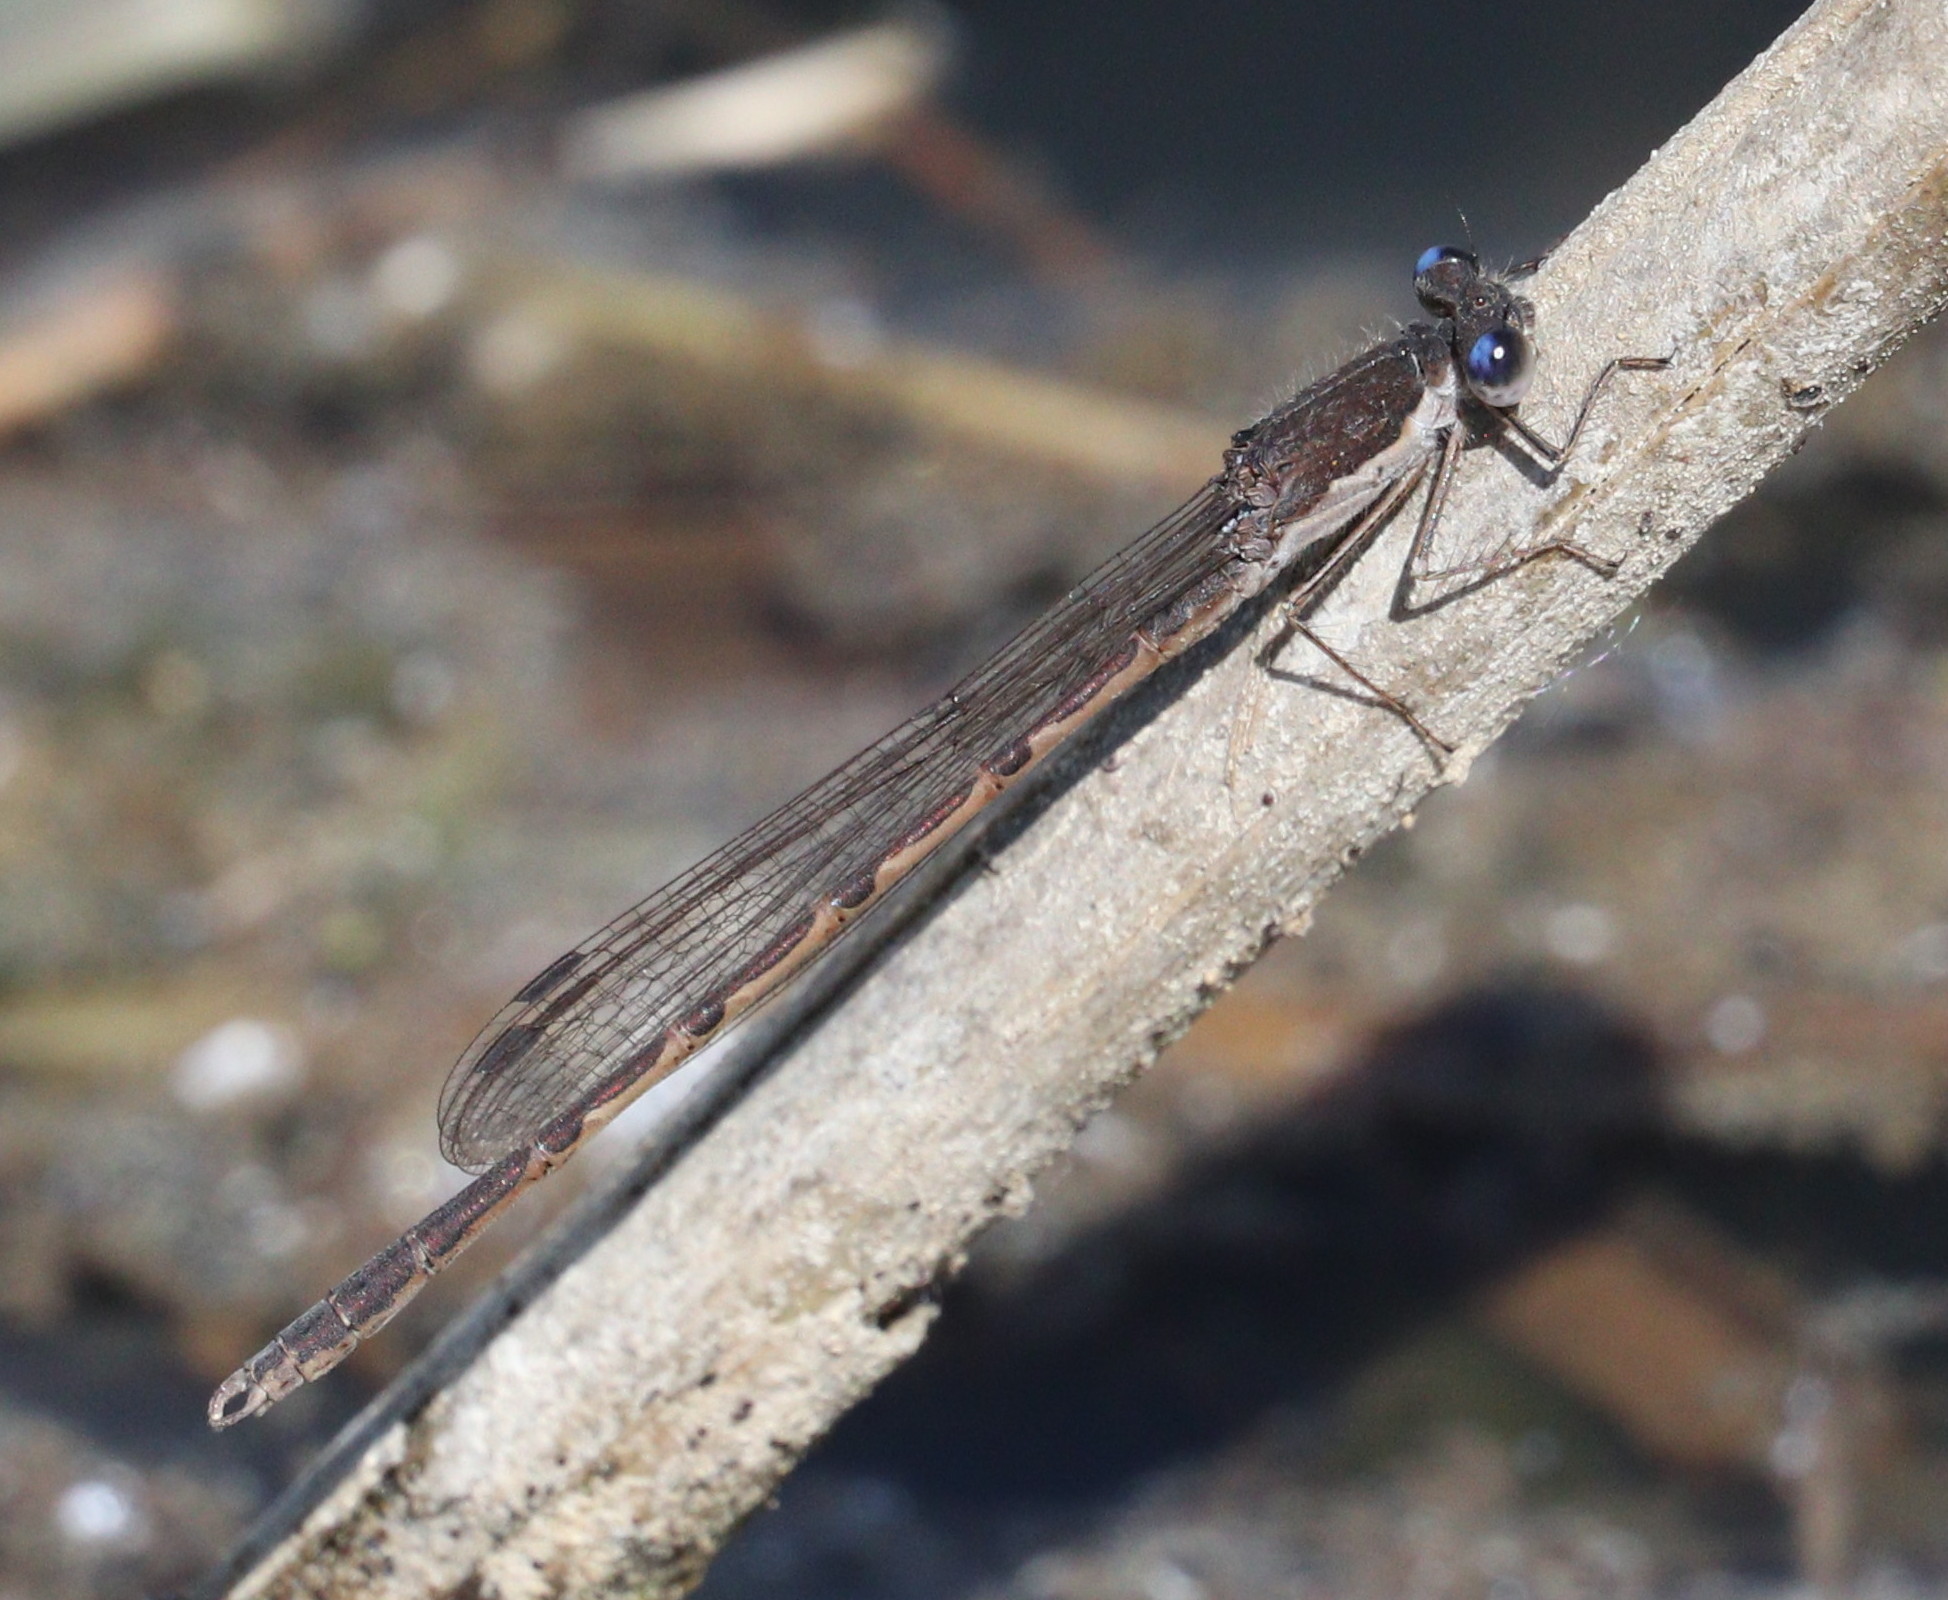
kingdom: Animalia
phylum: Arthropoda
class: Insecta
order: Odonata
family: Lestidae
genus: Sympecma
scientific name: Sympecma fusca
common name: Common winter damsel
